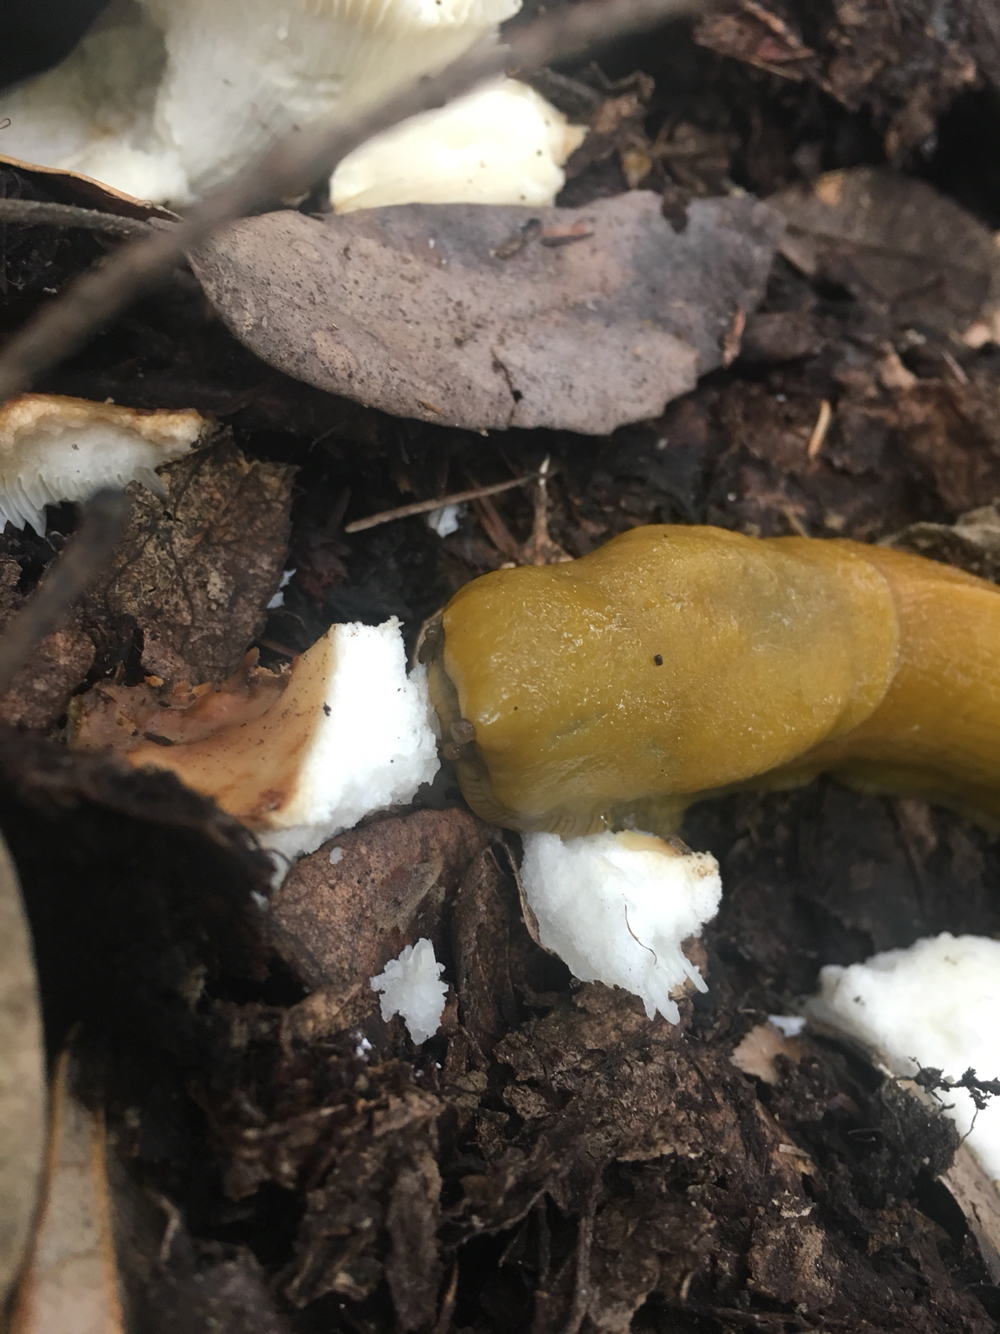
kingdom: Animalia
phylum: Mollusca
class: Gastropoda
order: Stylommatophora
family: Ariolimacidae
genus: Ariolimax
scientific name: Ariolimax californicus
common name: California banana slug
